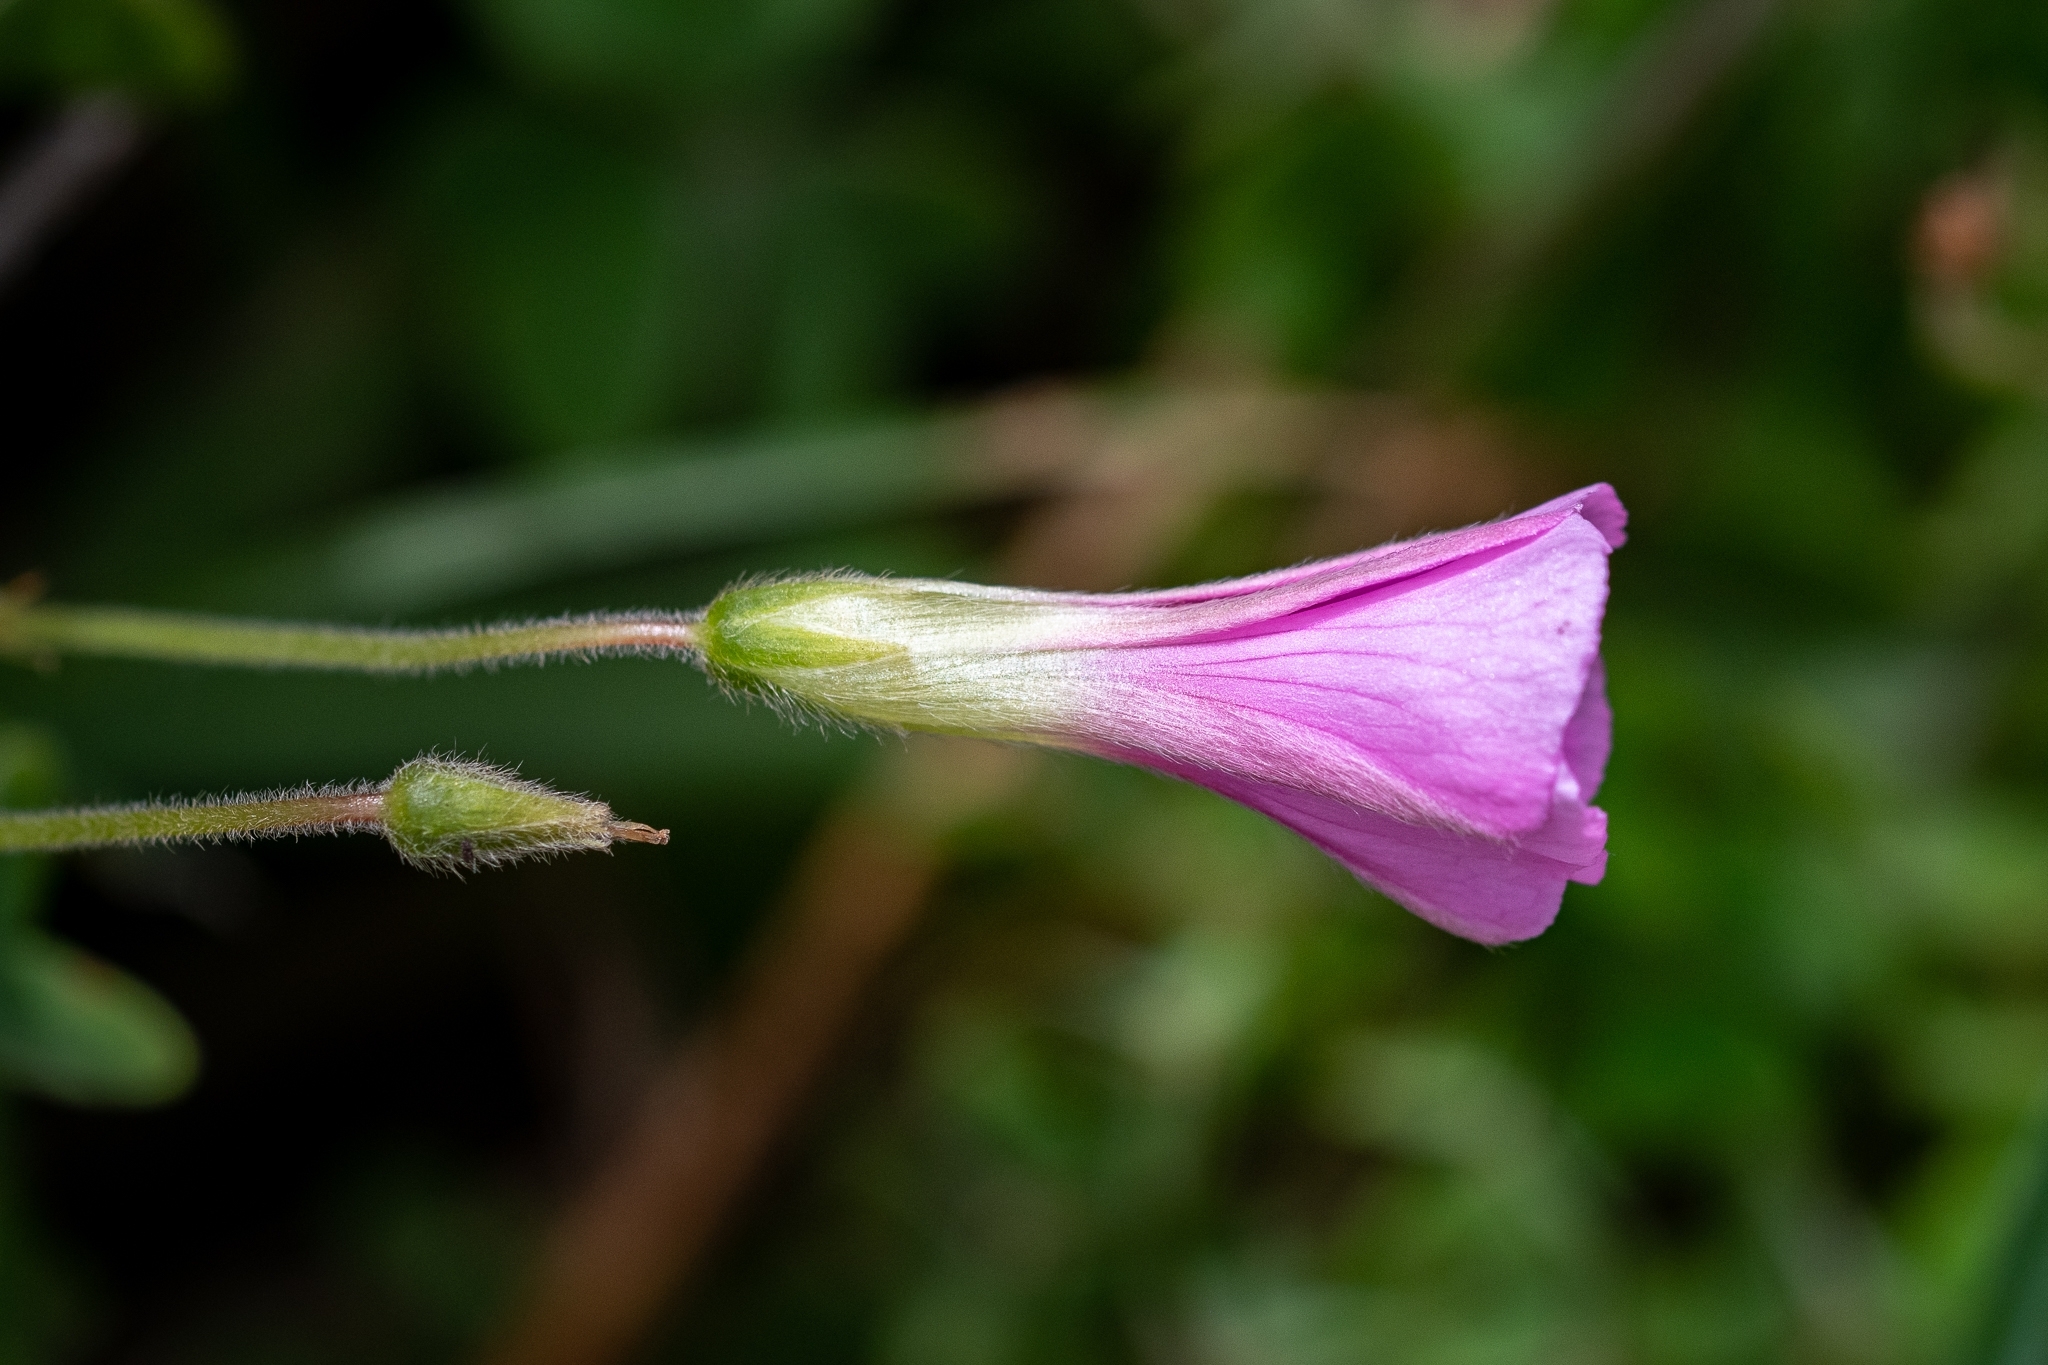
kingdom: Plantae
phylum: Tracheophyta
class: Magnoliopsida
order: Oxalidales
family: Oxalidaceae
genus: Oxalis
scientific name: Oxalis lanata
